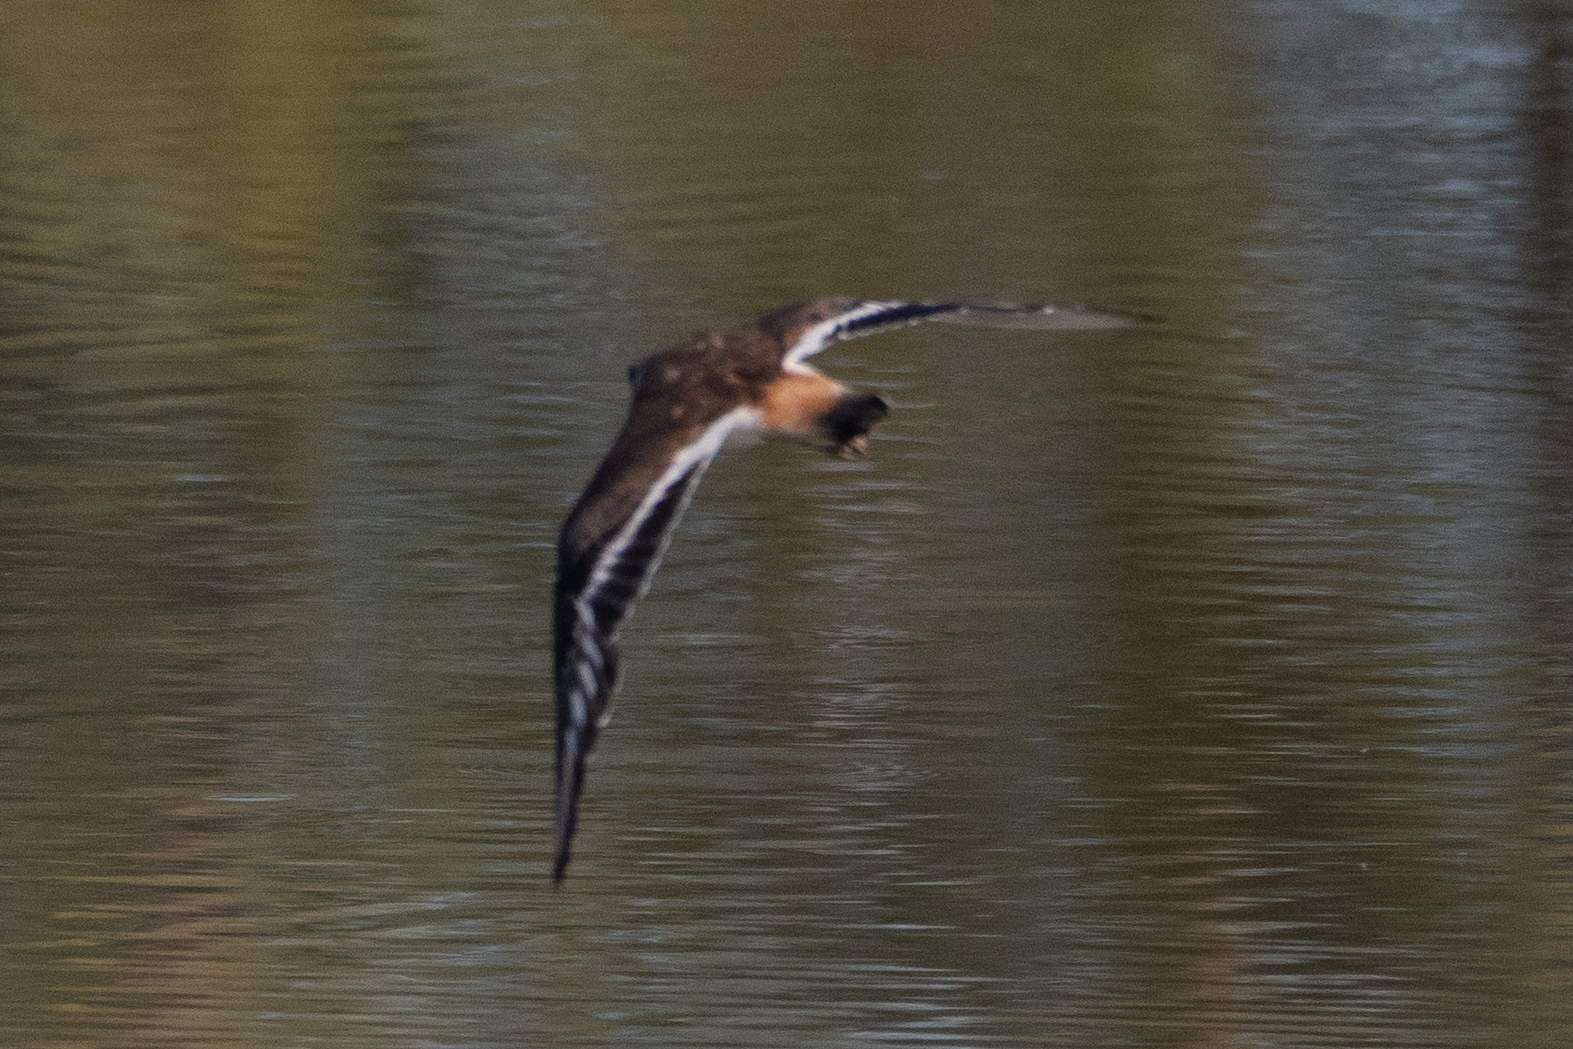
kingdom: Animalia
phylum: Chordata
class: Aves
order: Charadriiformes
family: Charadriidae
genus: Charadrius
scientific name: Charadrius vociferus
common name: Killdeer
